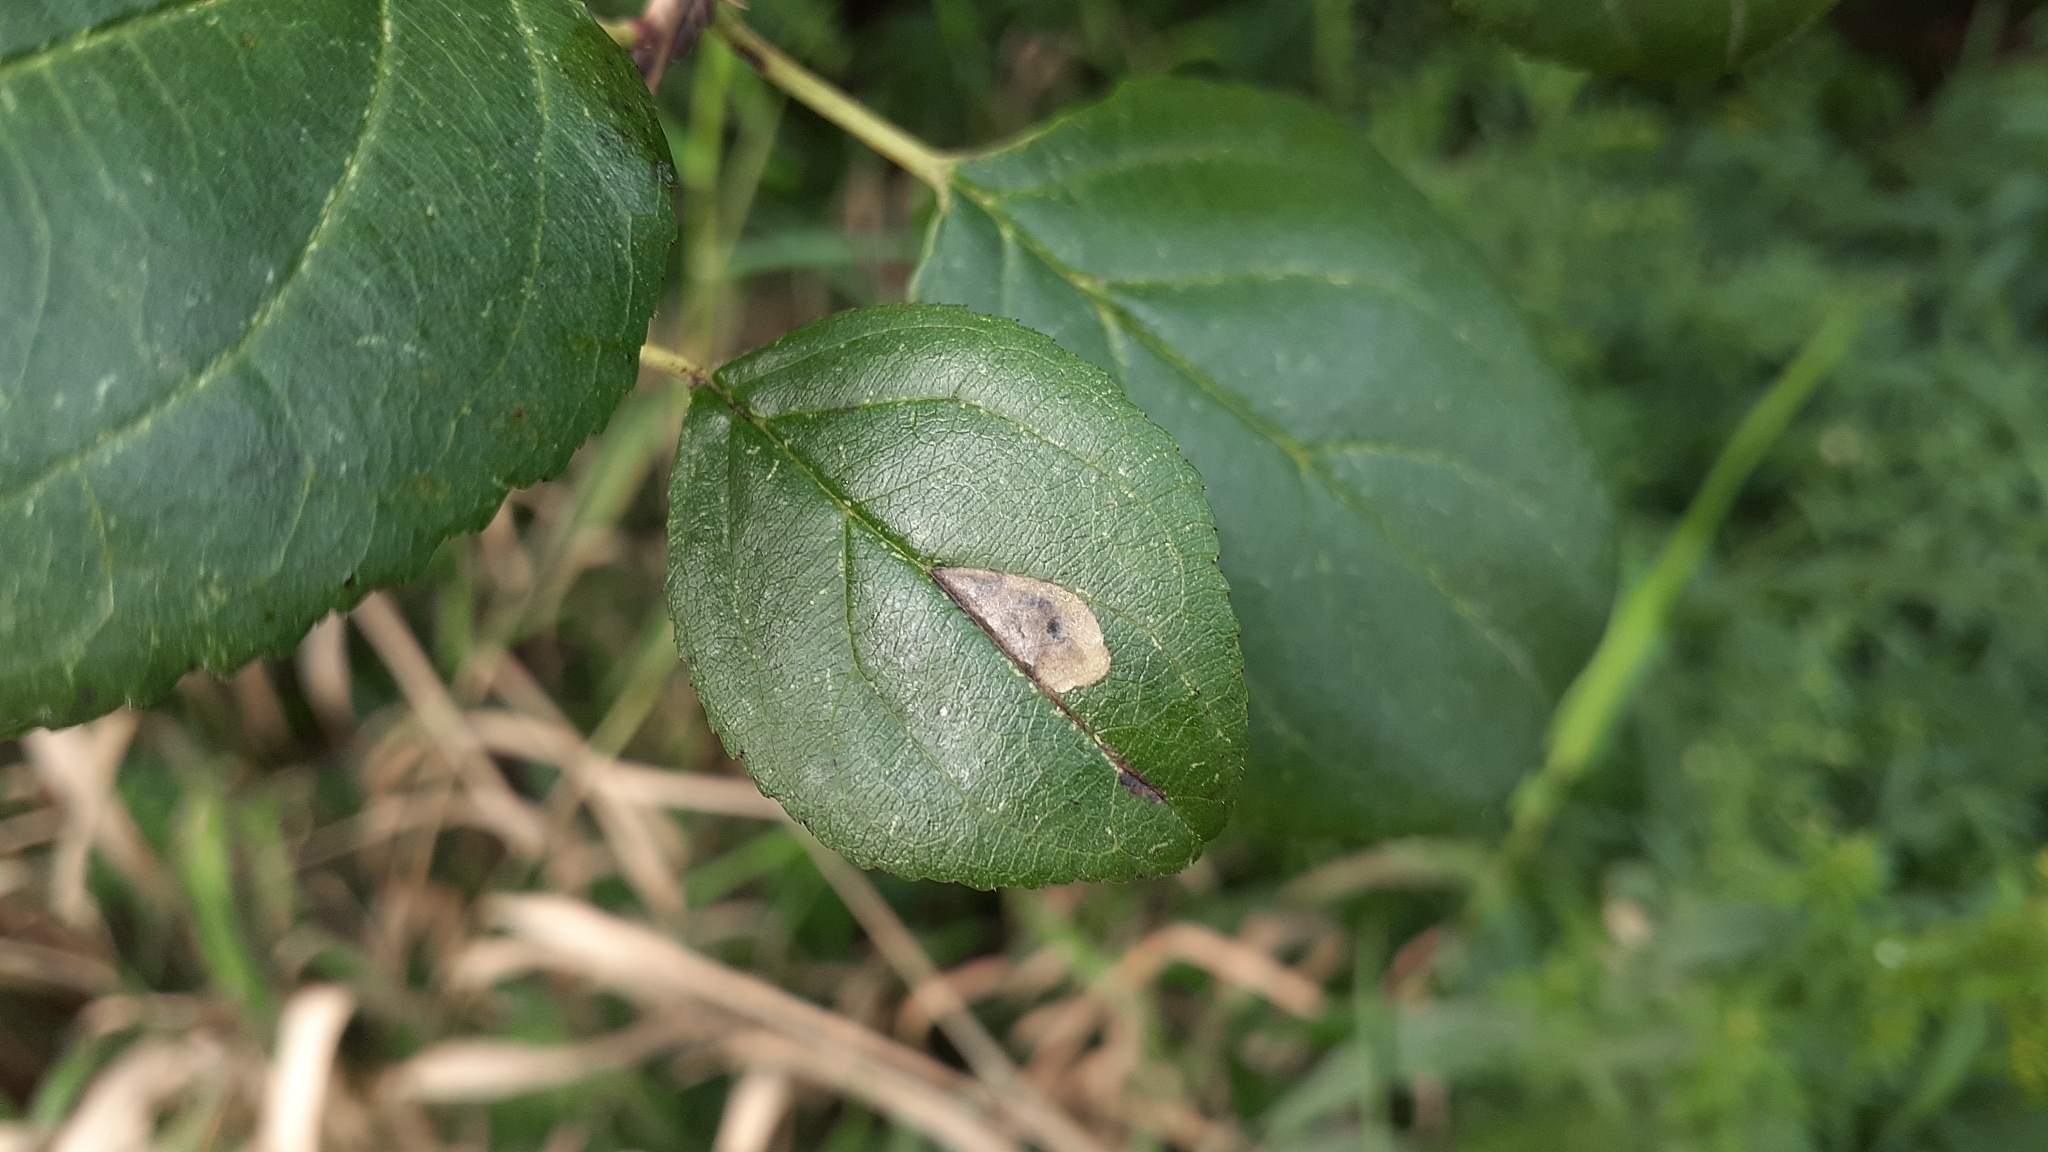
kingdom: Animalia
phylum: Arthropoda
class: Insecta
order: Lepidoptera
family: Nepticulidae
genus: Stigmella
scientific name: Stigmella rhamnicola
